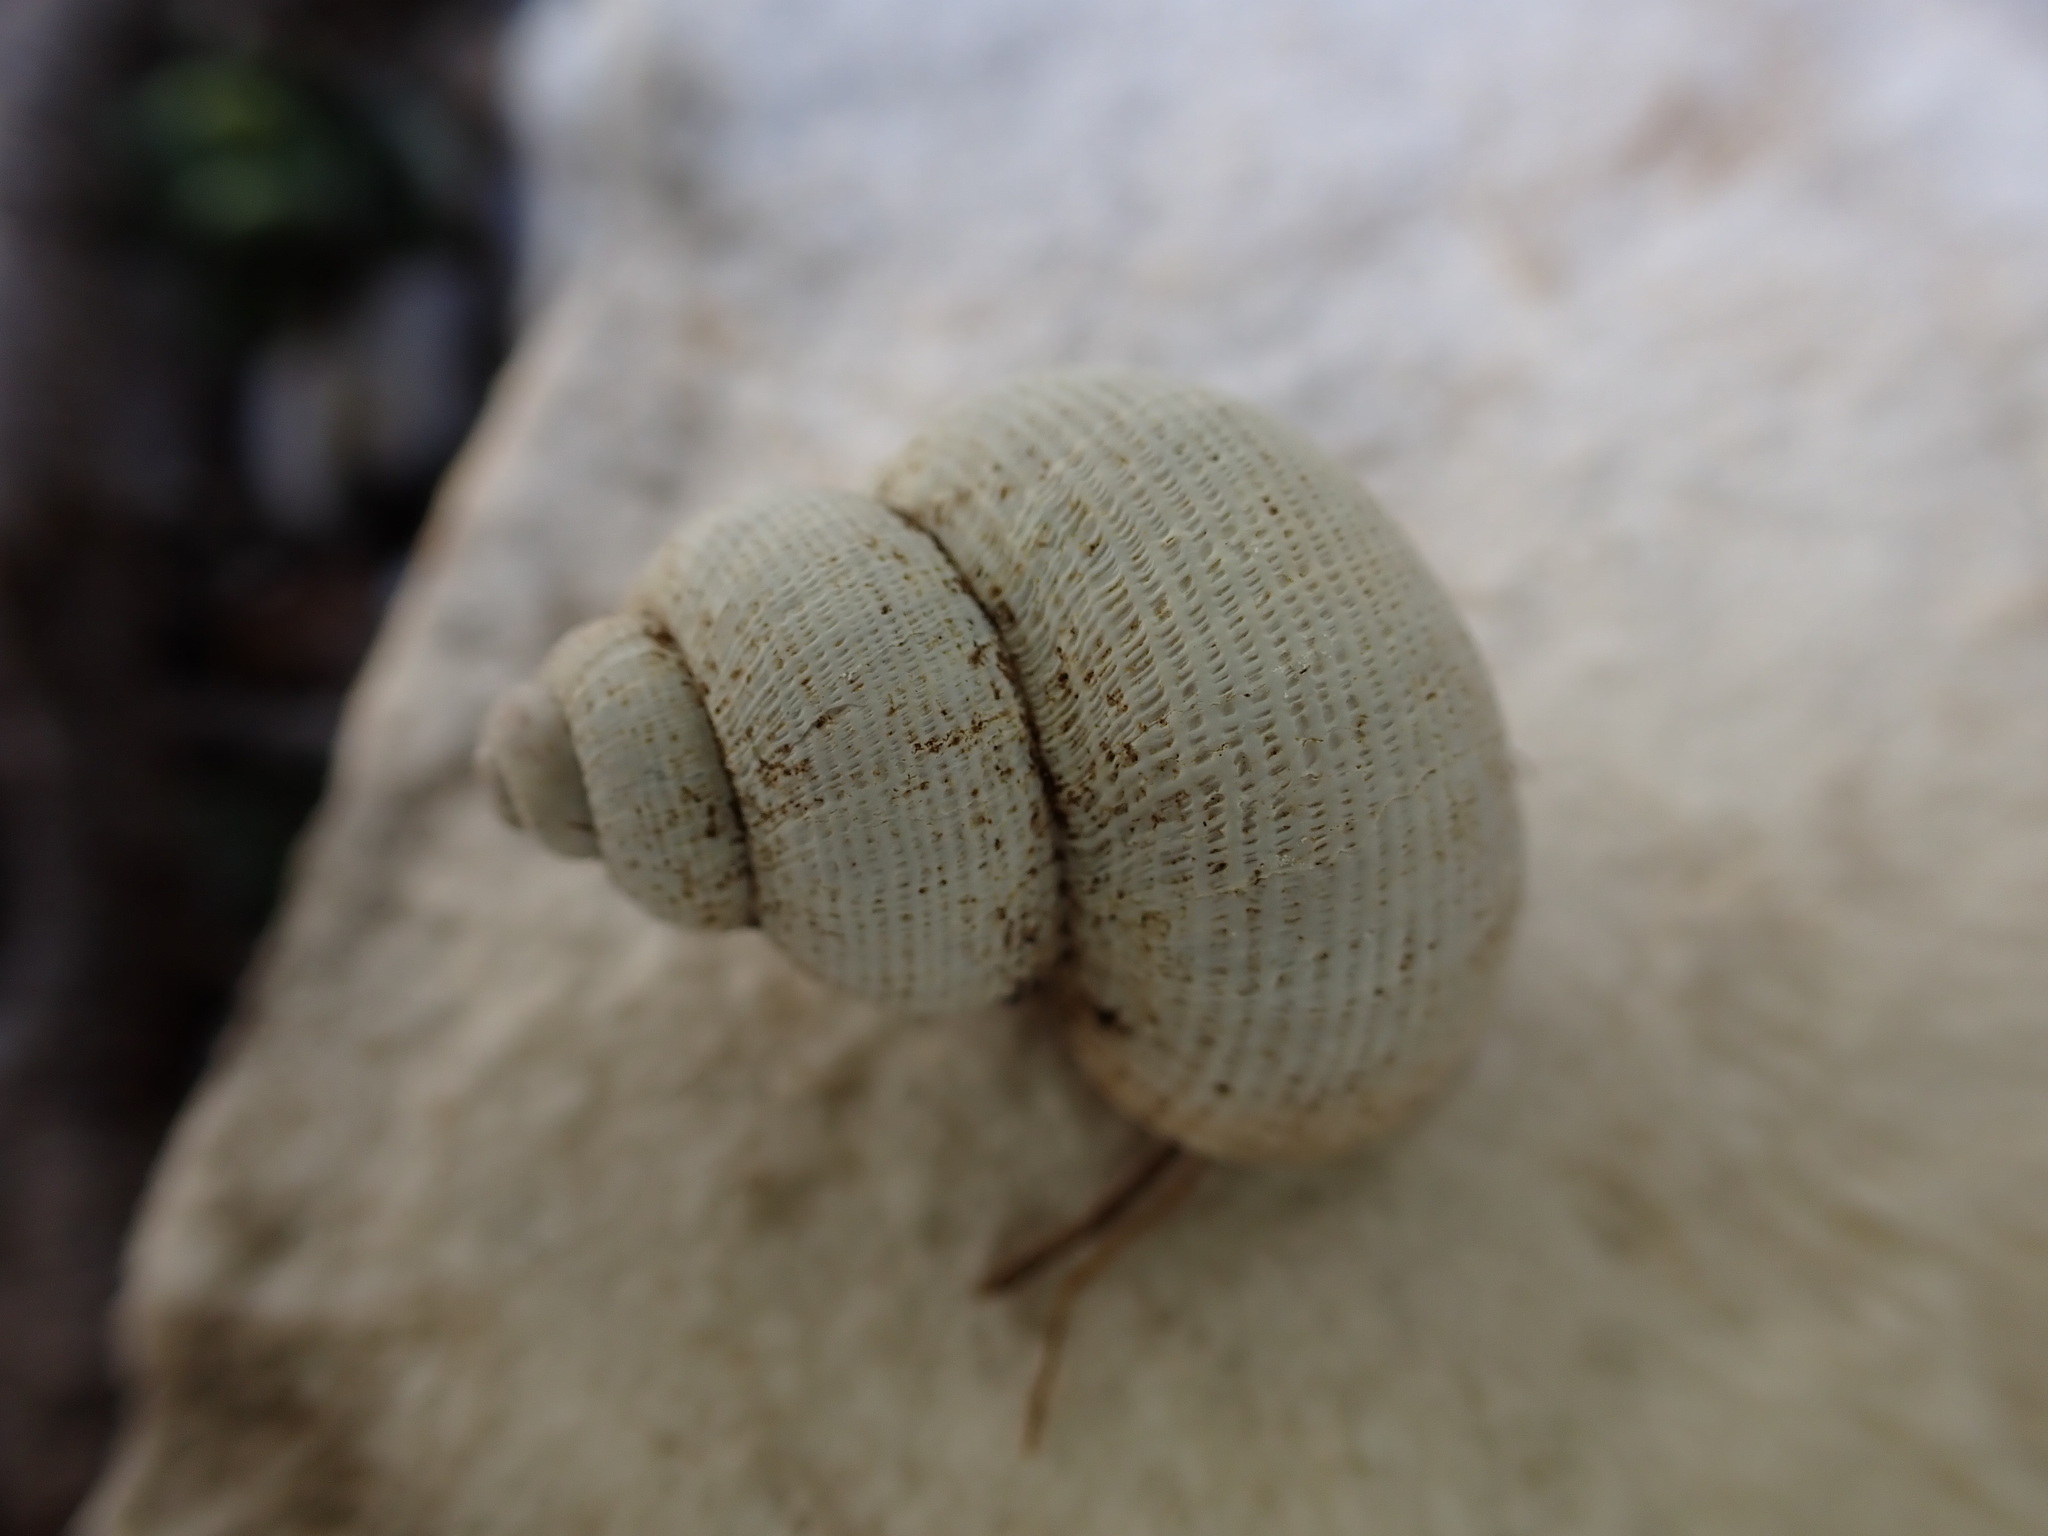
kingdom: Animalia
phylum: Mollusca
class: Gastropoda
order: Littorinimorpha
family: Pomatiidae
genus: Pomatias
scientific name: Pomatias elegans
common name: Red-mouthed snail
